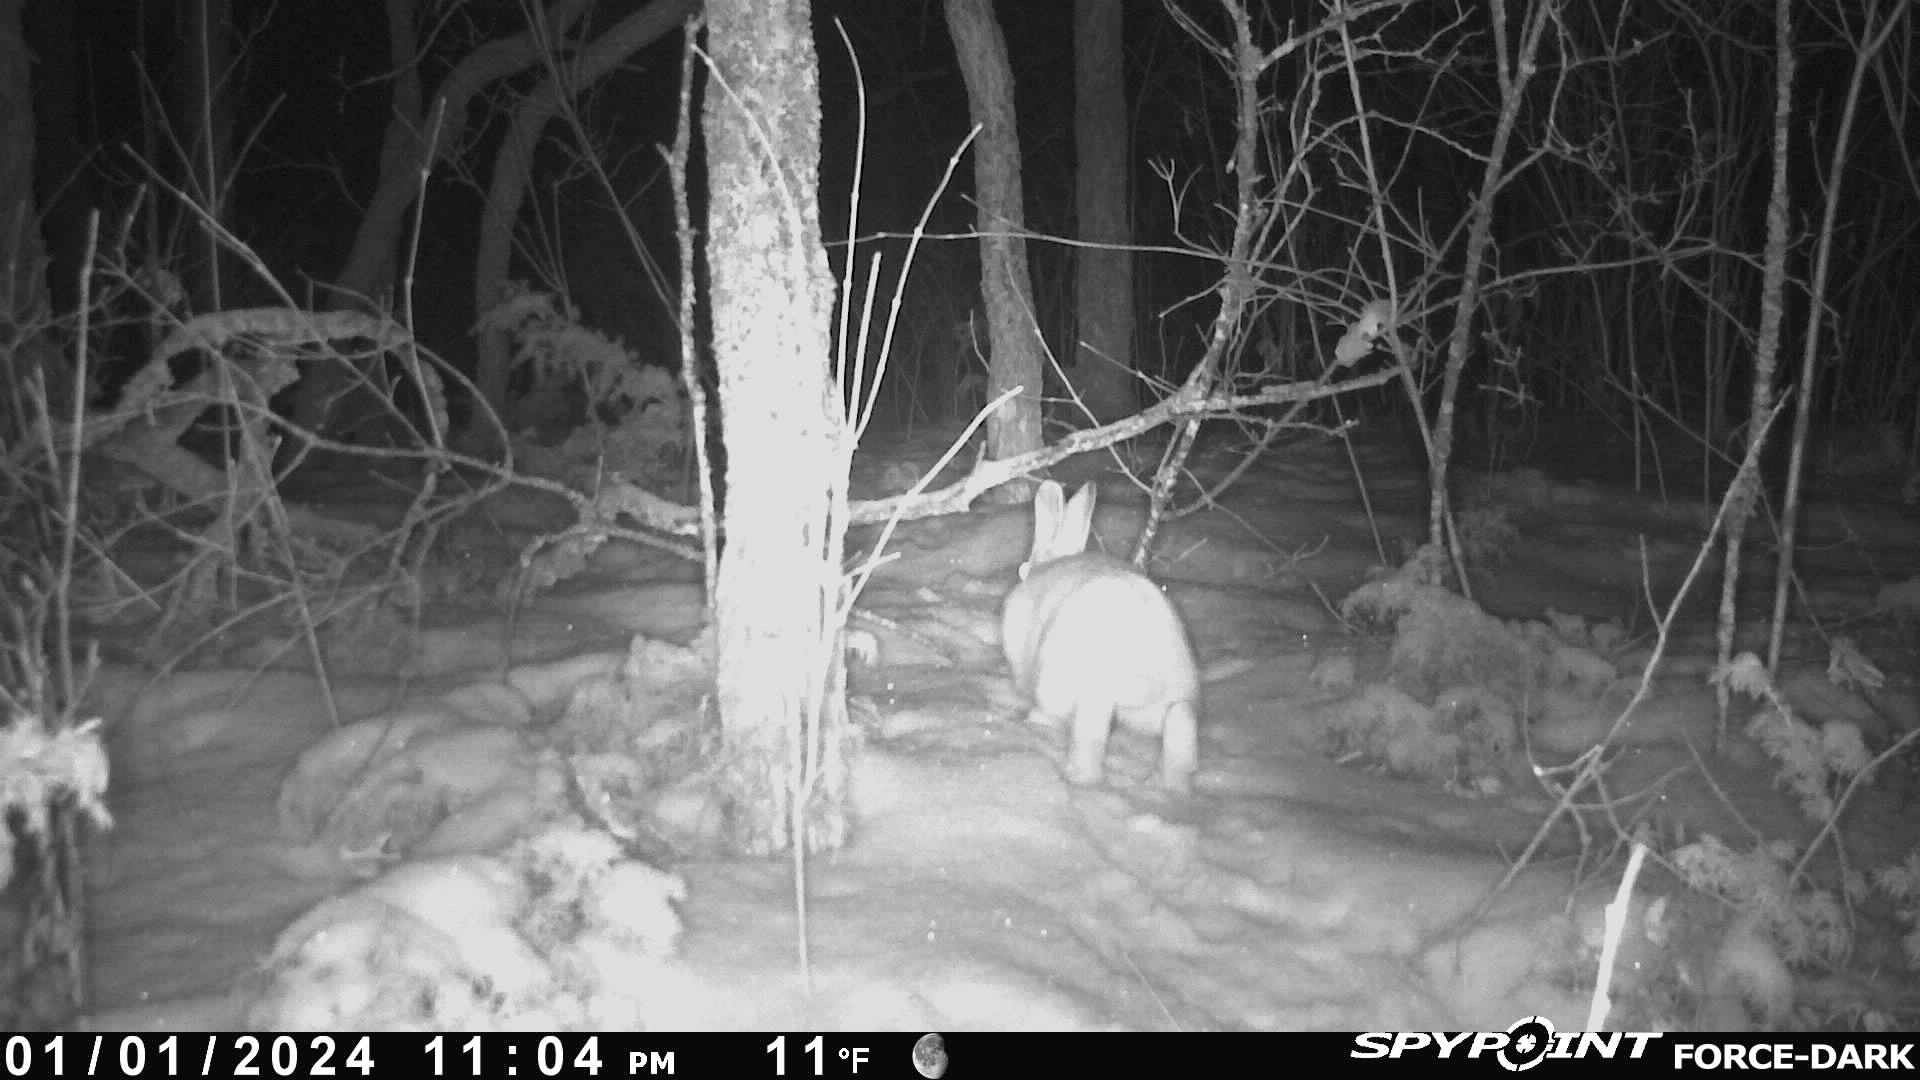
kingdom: Animalia
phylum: Chordata
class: Mammalia
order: Lagomorpha
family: Leporidae
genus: Lepus
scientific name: Lepus americanus
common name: Snowshoe hare
